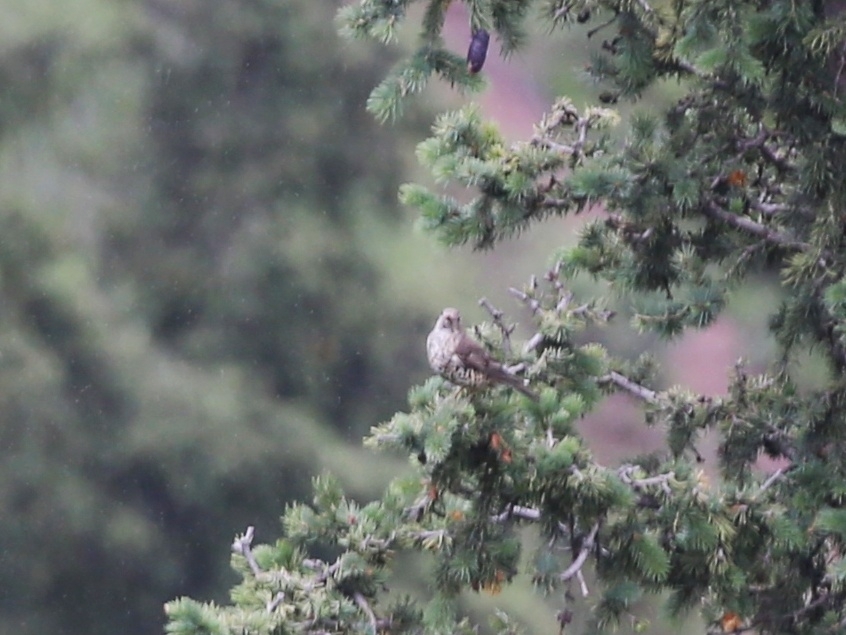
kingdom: Animalia
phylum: Chordata
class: Aves
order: Passeriformes
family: Turdidae
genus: Turdus
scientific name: Turdus viscivorus
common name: Mistle thrush
